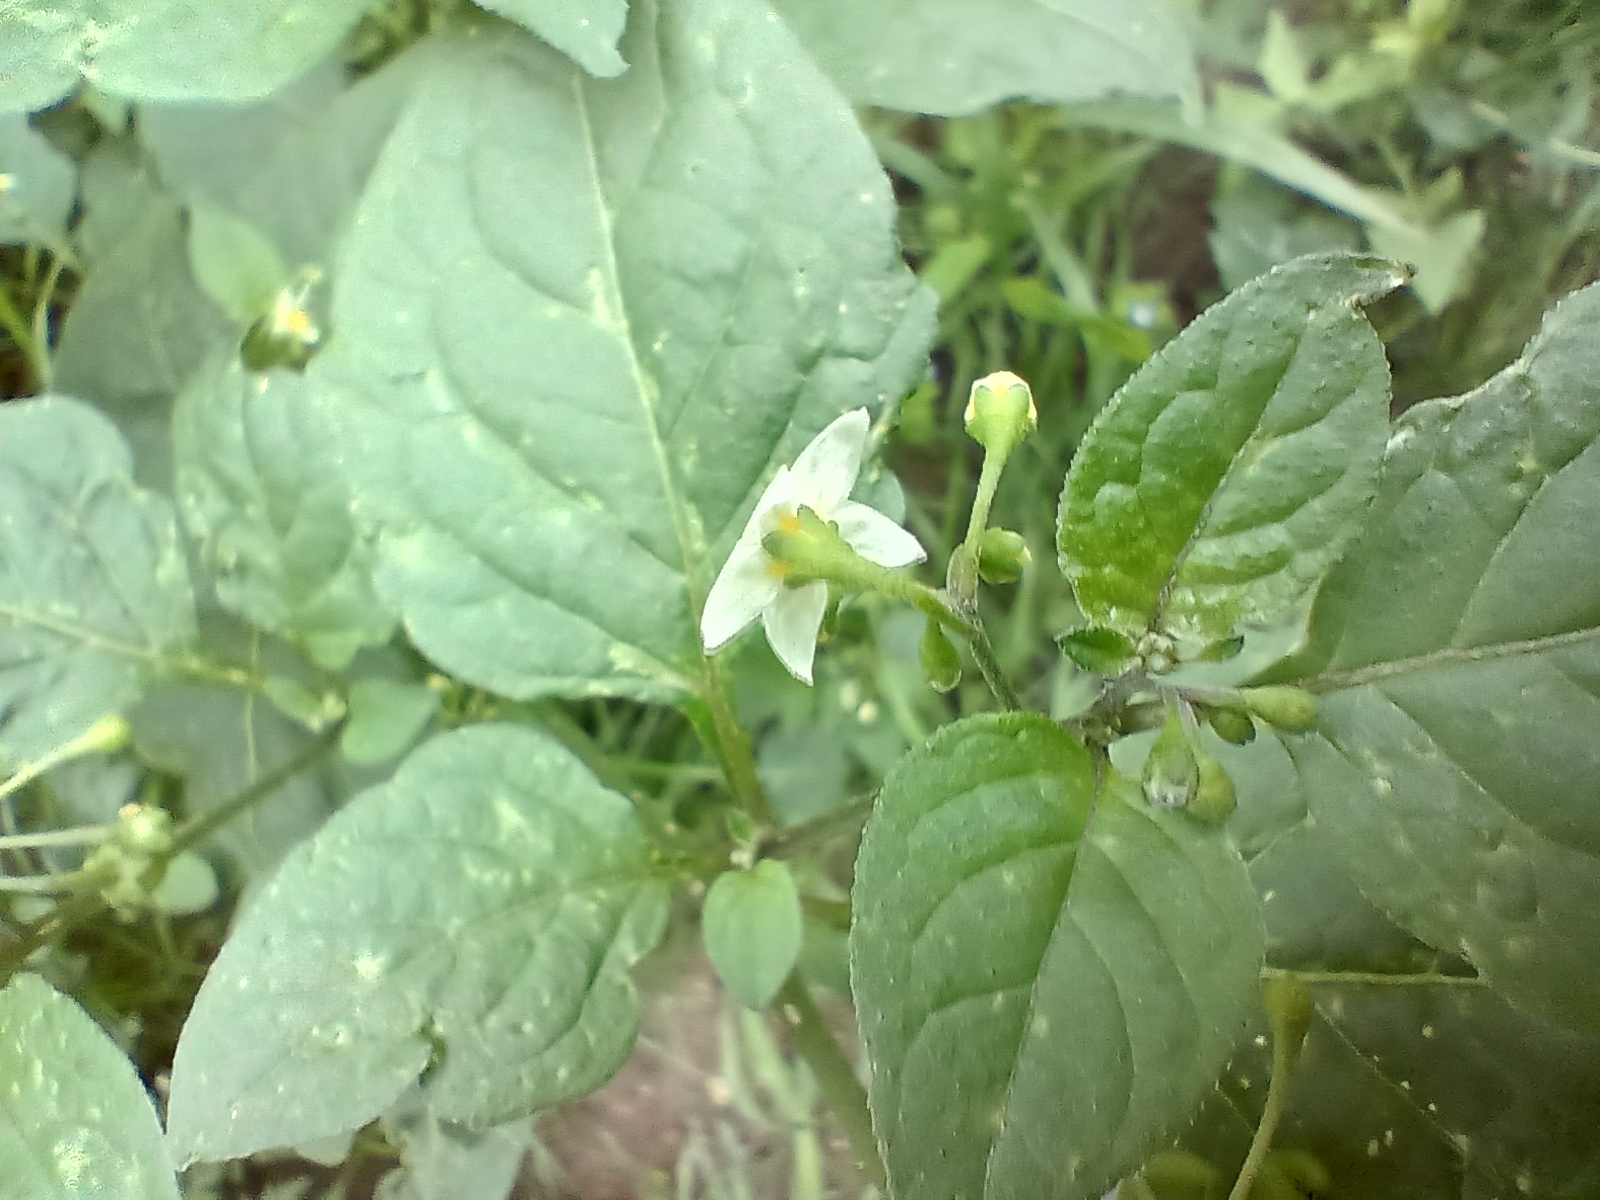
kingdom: Plantae
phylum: Tracheophyta
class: Magnoliopsida
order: Solanales
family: Solanaceae
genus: Solanum
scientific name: Solanum nigrum
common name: Black nightshade
